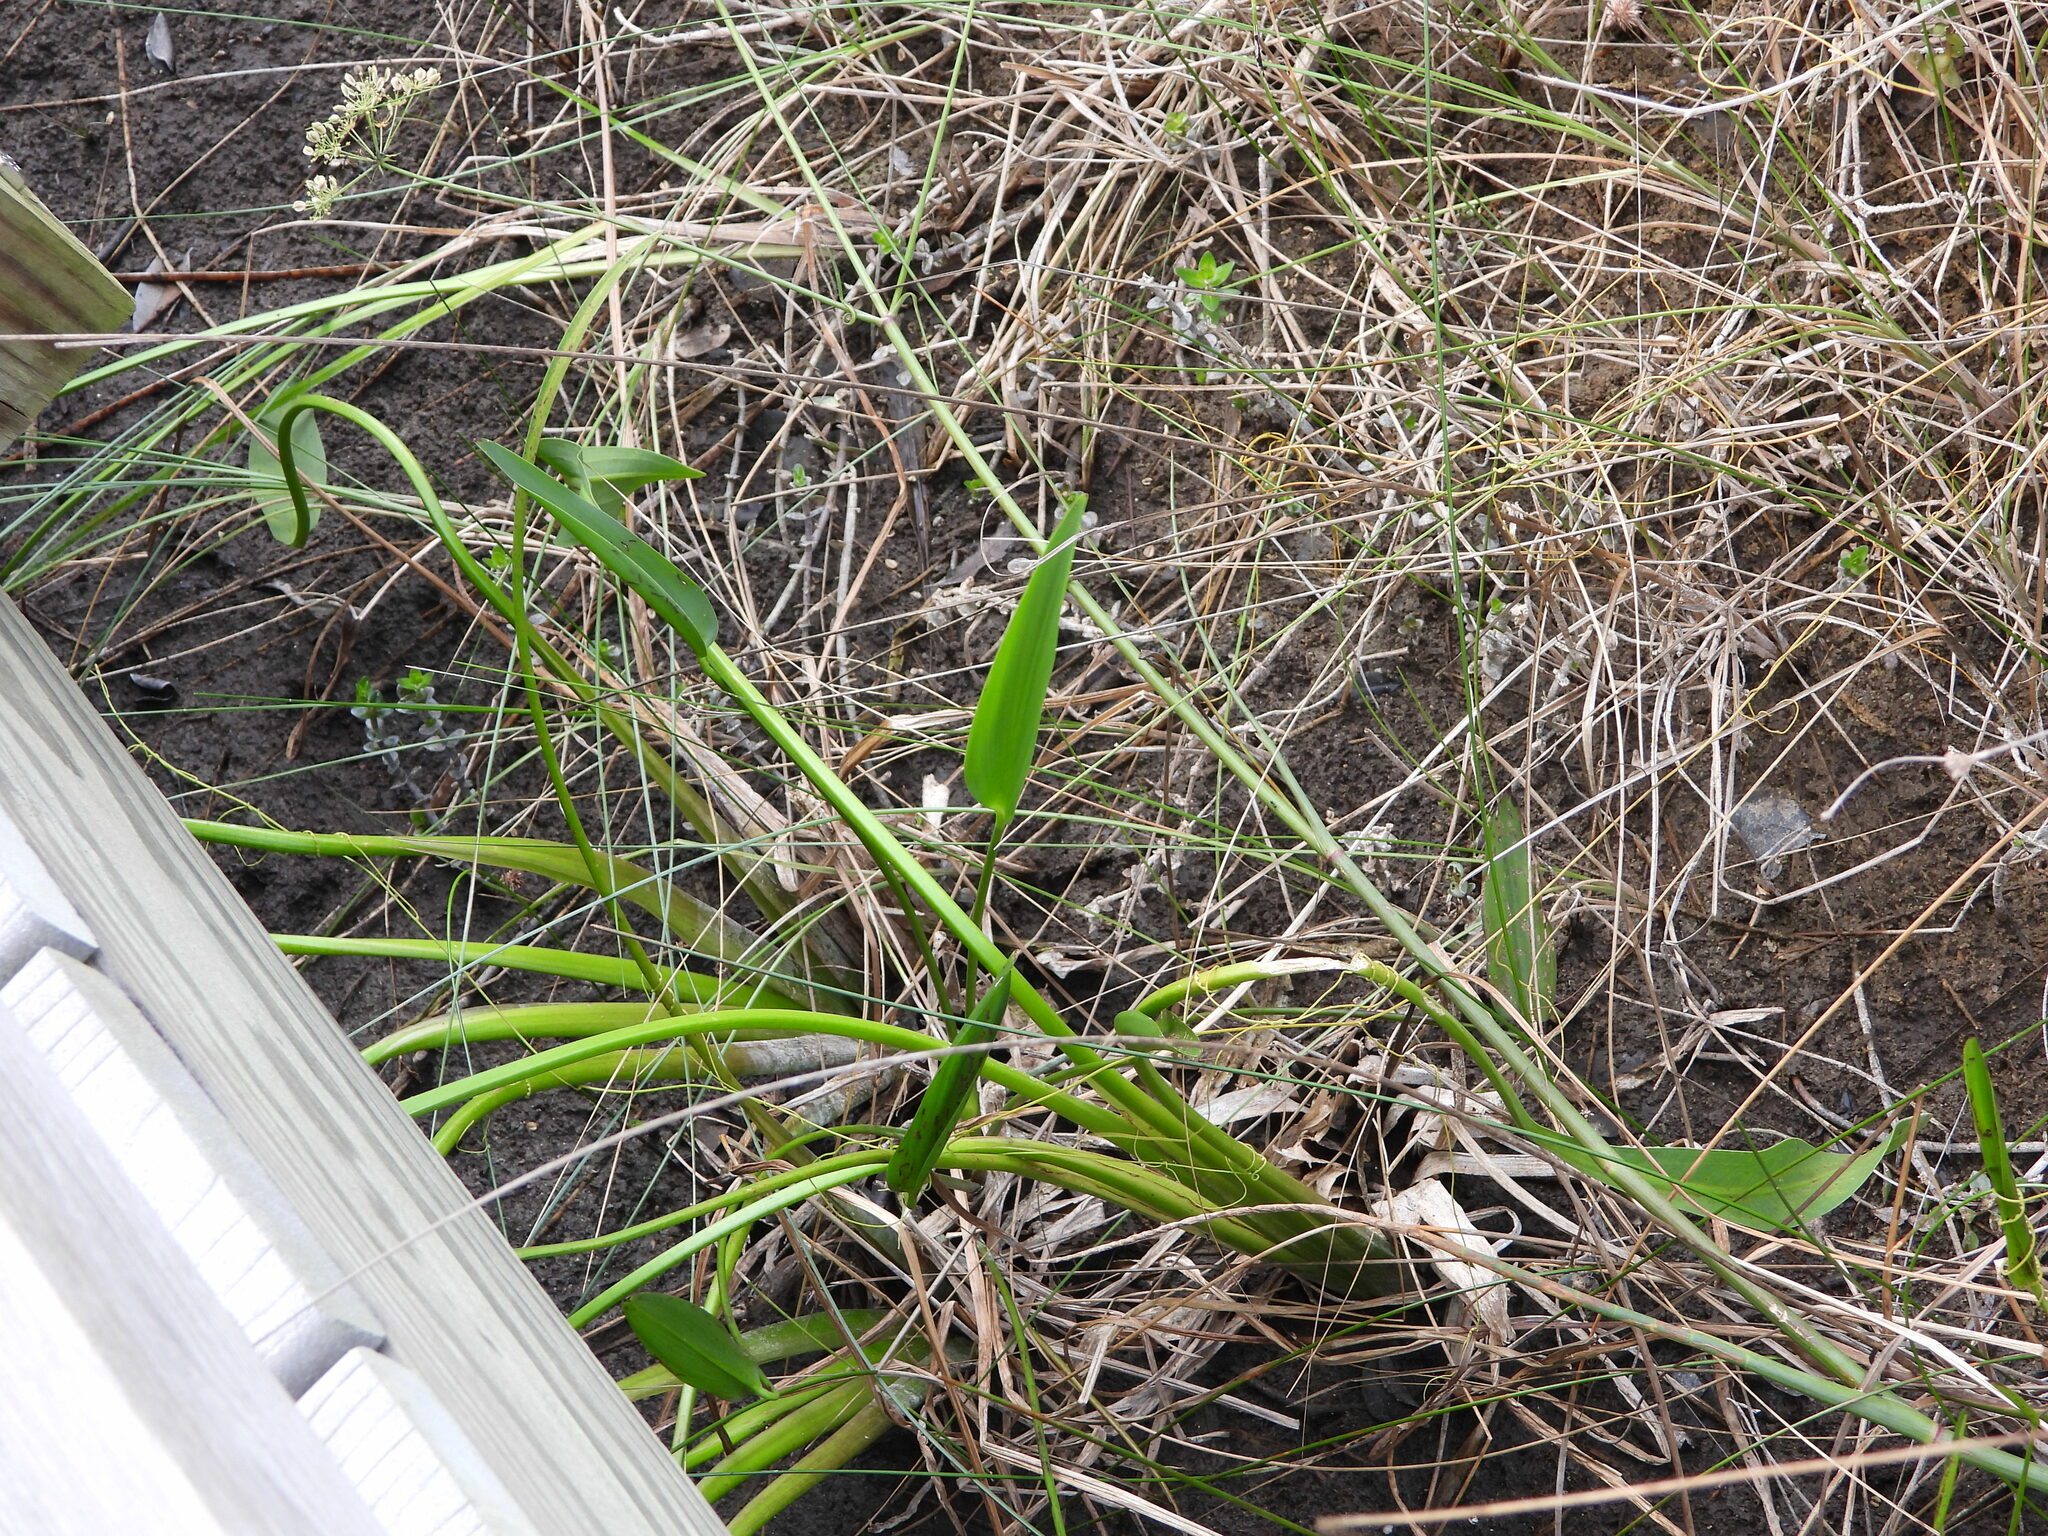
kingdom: Plantae
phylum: Tracheophyta
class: Liliopsida
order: Alismatales
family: Alismataceae
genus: Sagittaria
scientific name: Sagittaria lancifolia
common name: Lance-leaf arrowhead
